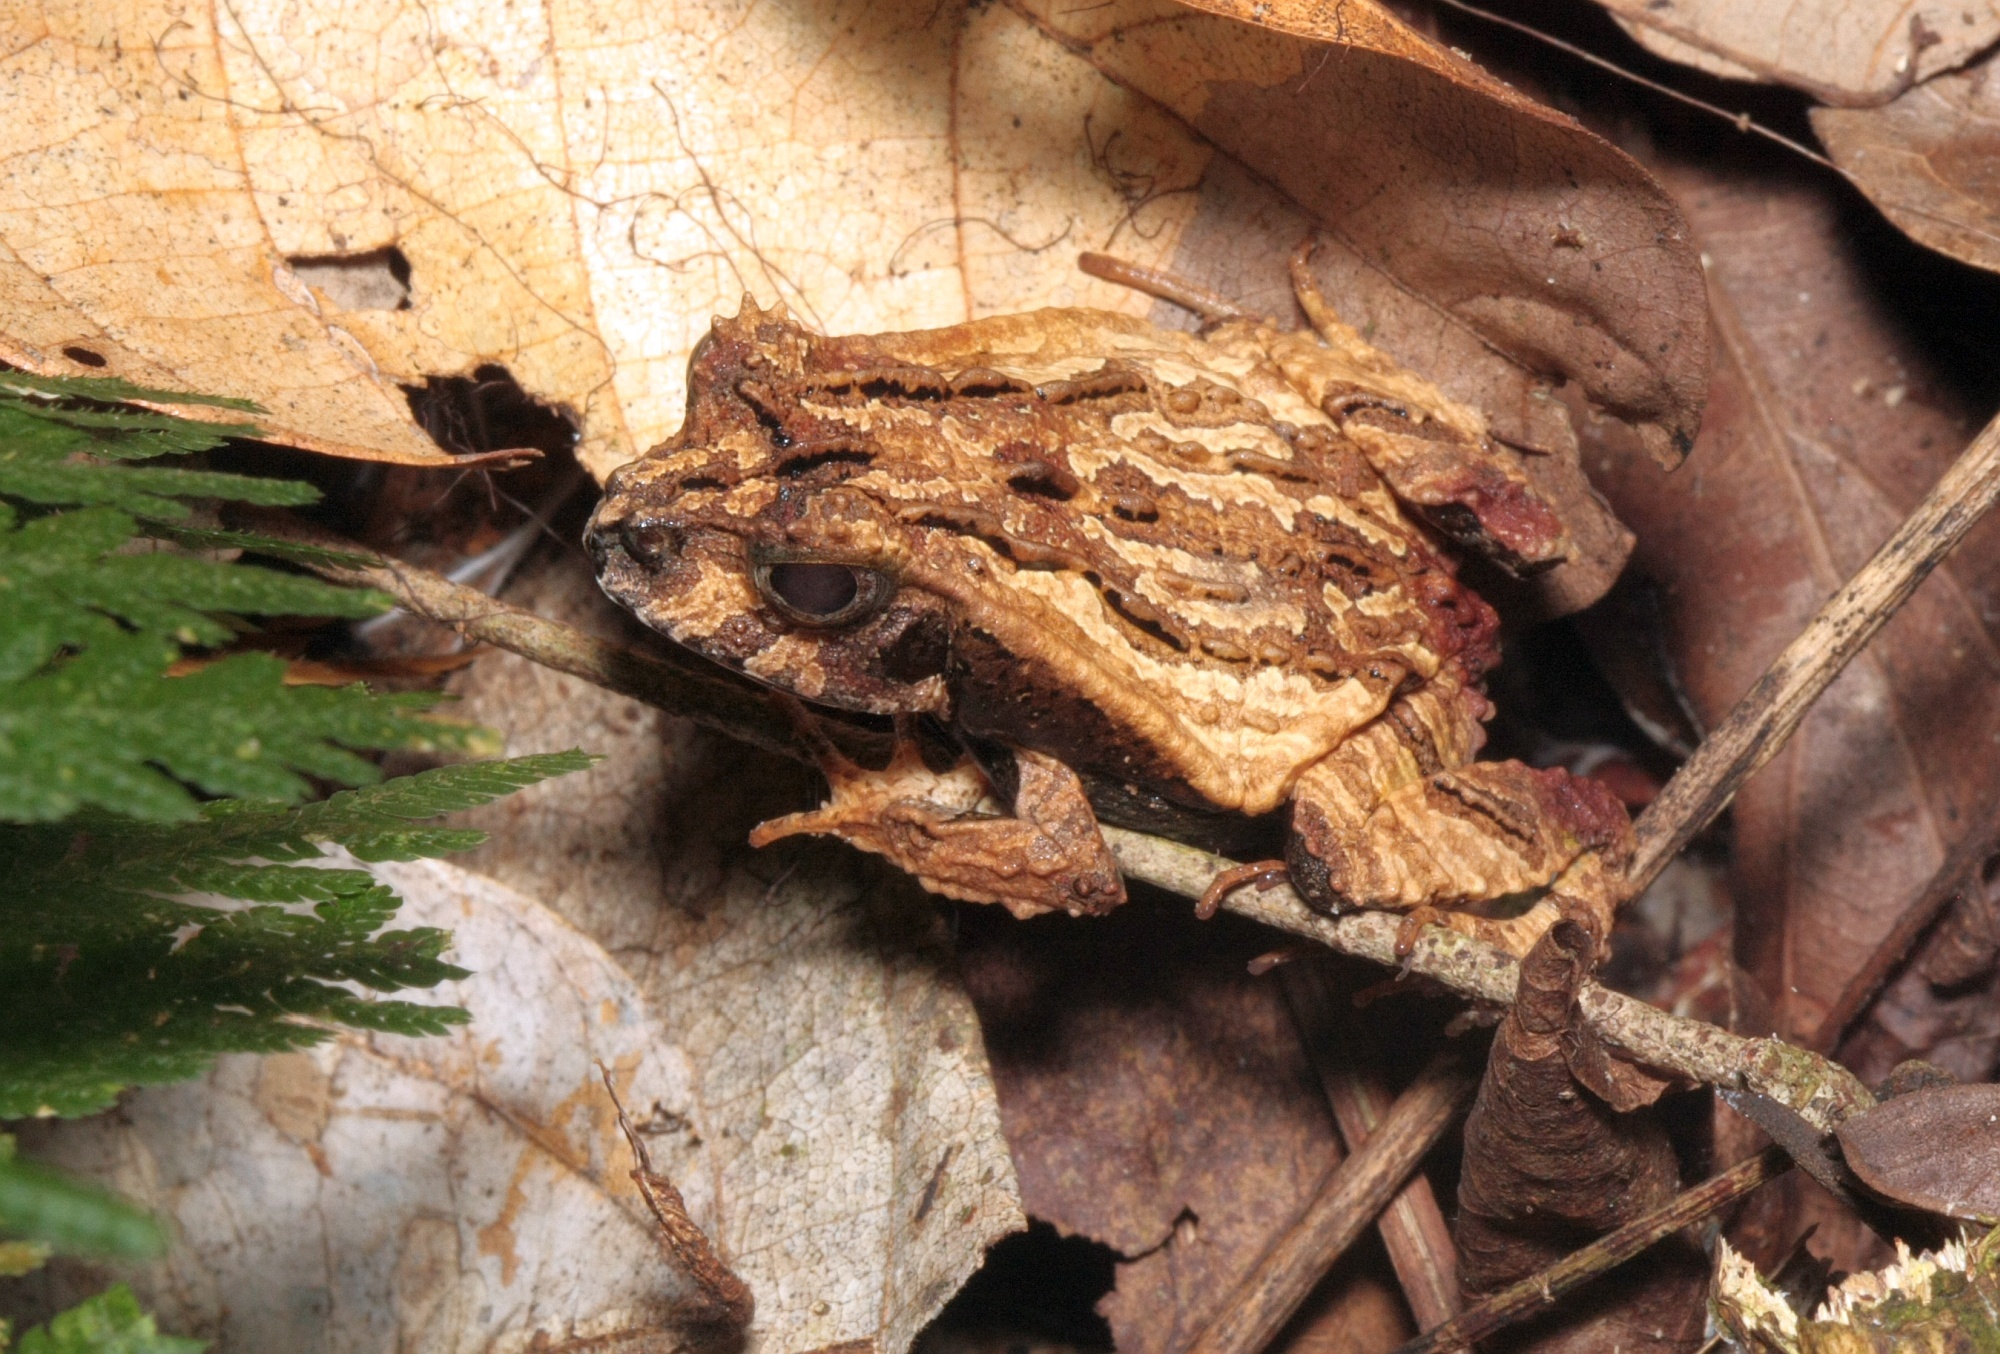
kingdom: Animalia
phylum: Chordata
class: Amphibia
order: Anura
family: Leptodactylidae
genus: Edalorhina
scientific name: Edalorhina perezi
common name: Perez’s snouted frog
